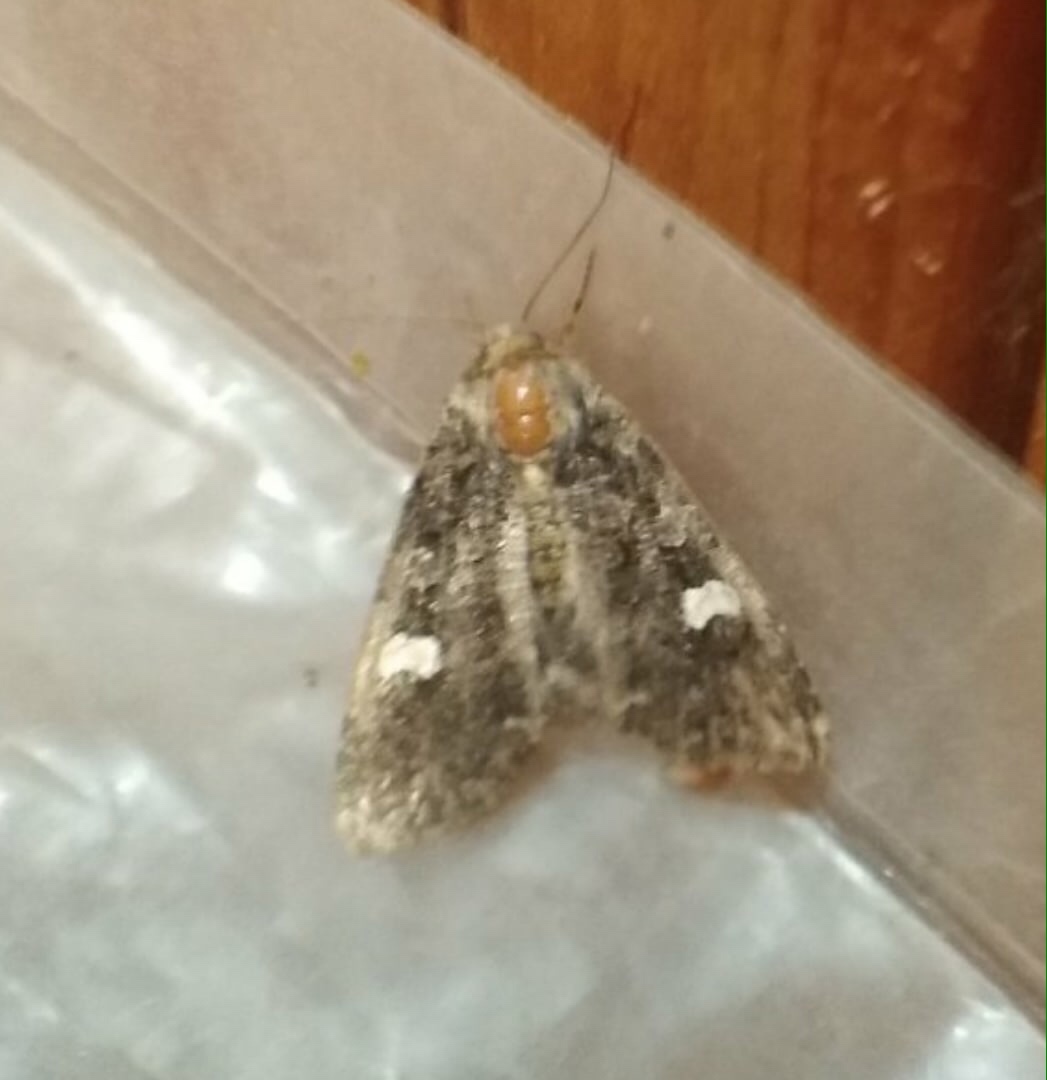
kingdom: Animalia
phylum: Arthropoda
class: Insecta
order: Lepidoptera
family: Noctuidae
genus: Melanchra
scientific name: Melanchra persicariae
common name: Dot moth
